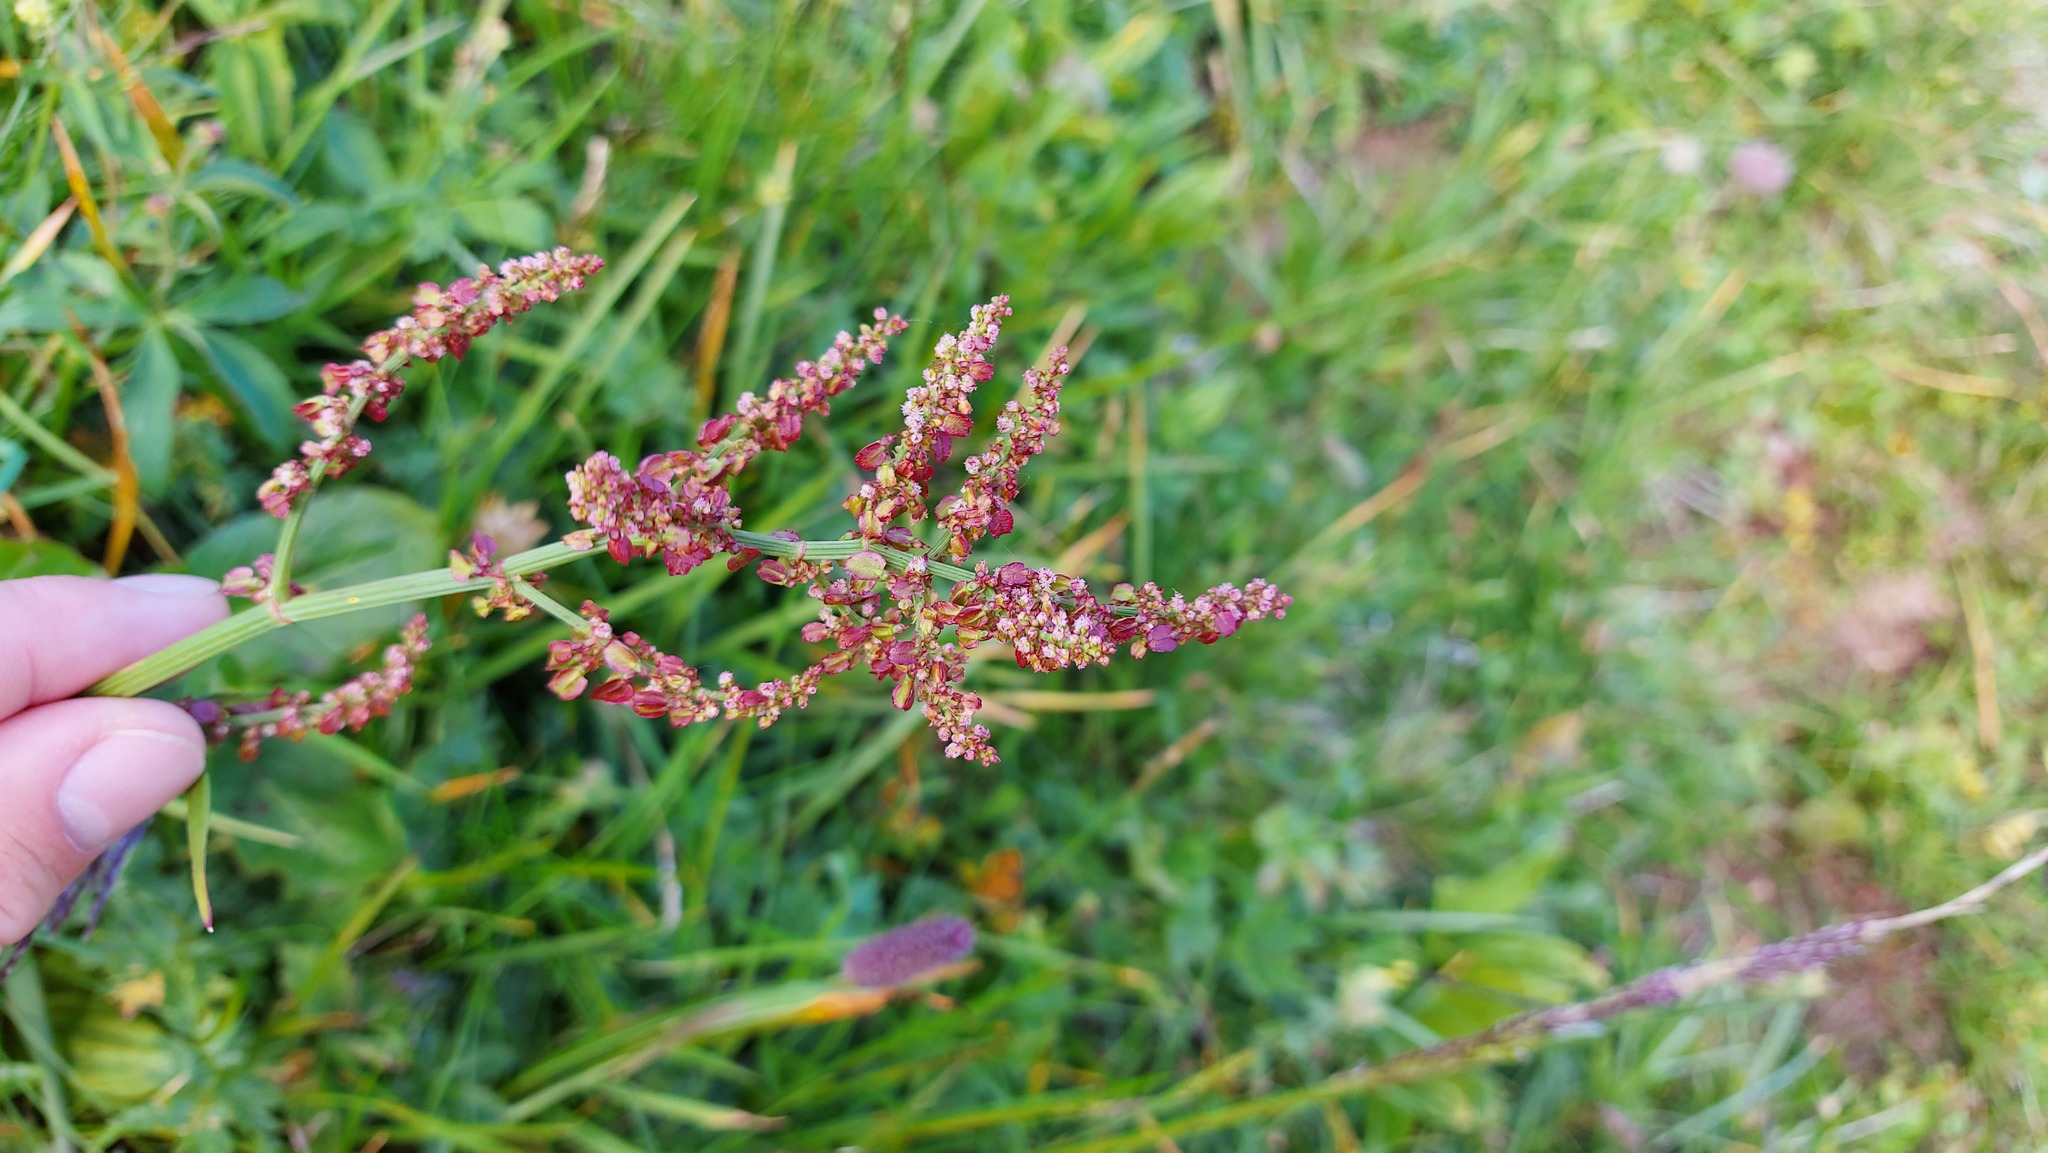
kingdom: Plantae
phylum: Tracheophyta
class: Magnoliopsida
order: Caryophyllales
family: Polygonaceae
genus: Rumex
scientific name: Rumex acetosa
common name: Garden sorrel
